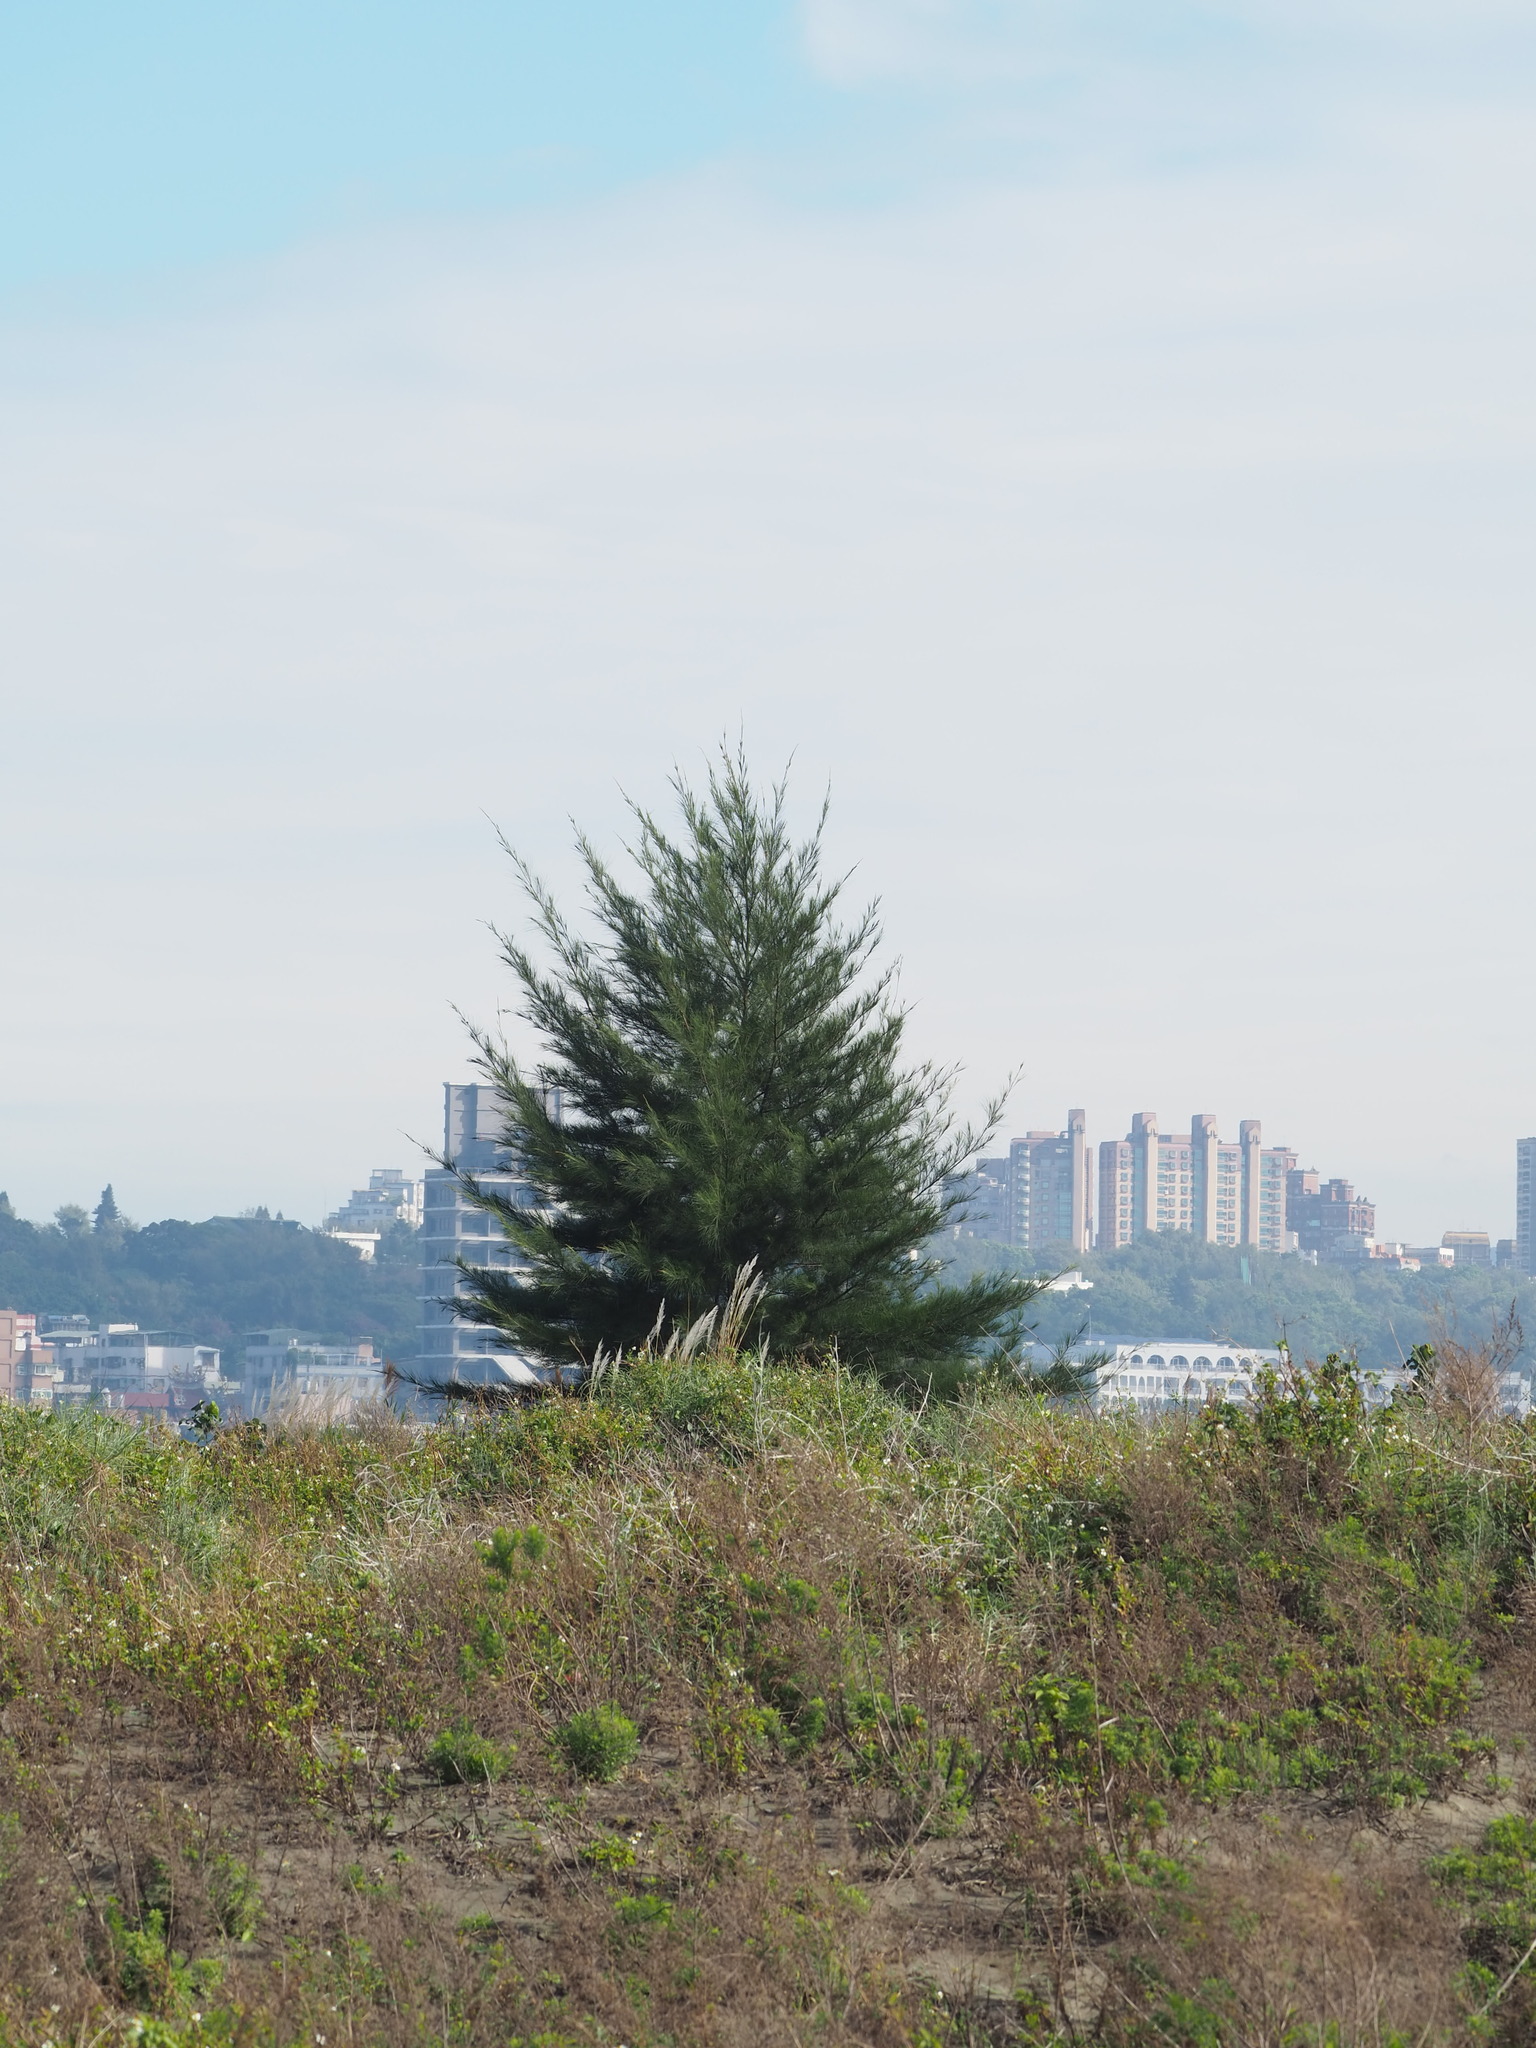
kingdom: Plantae
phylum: Tracheophyta
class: Magnoliopsida
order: Fagales
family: Casuarinaceae
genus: Casuarina
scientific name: Casuarina equisetifolia
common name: Beach sheoak
